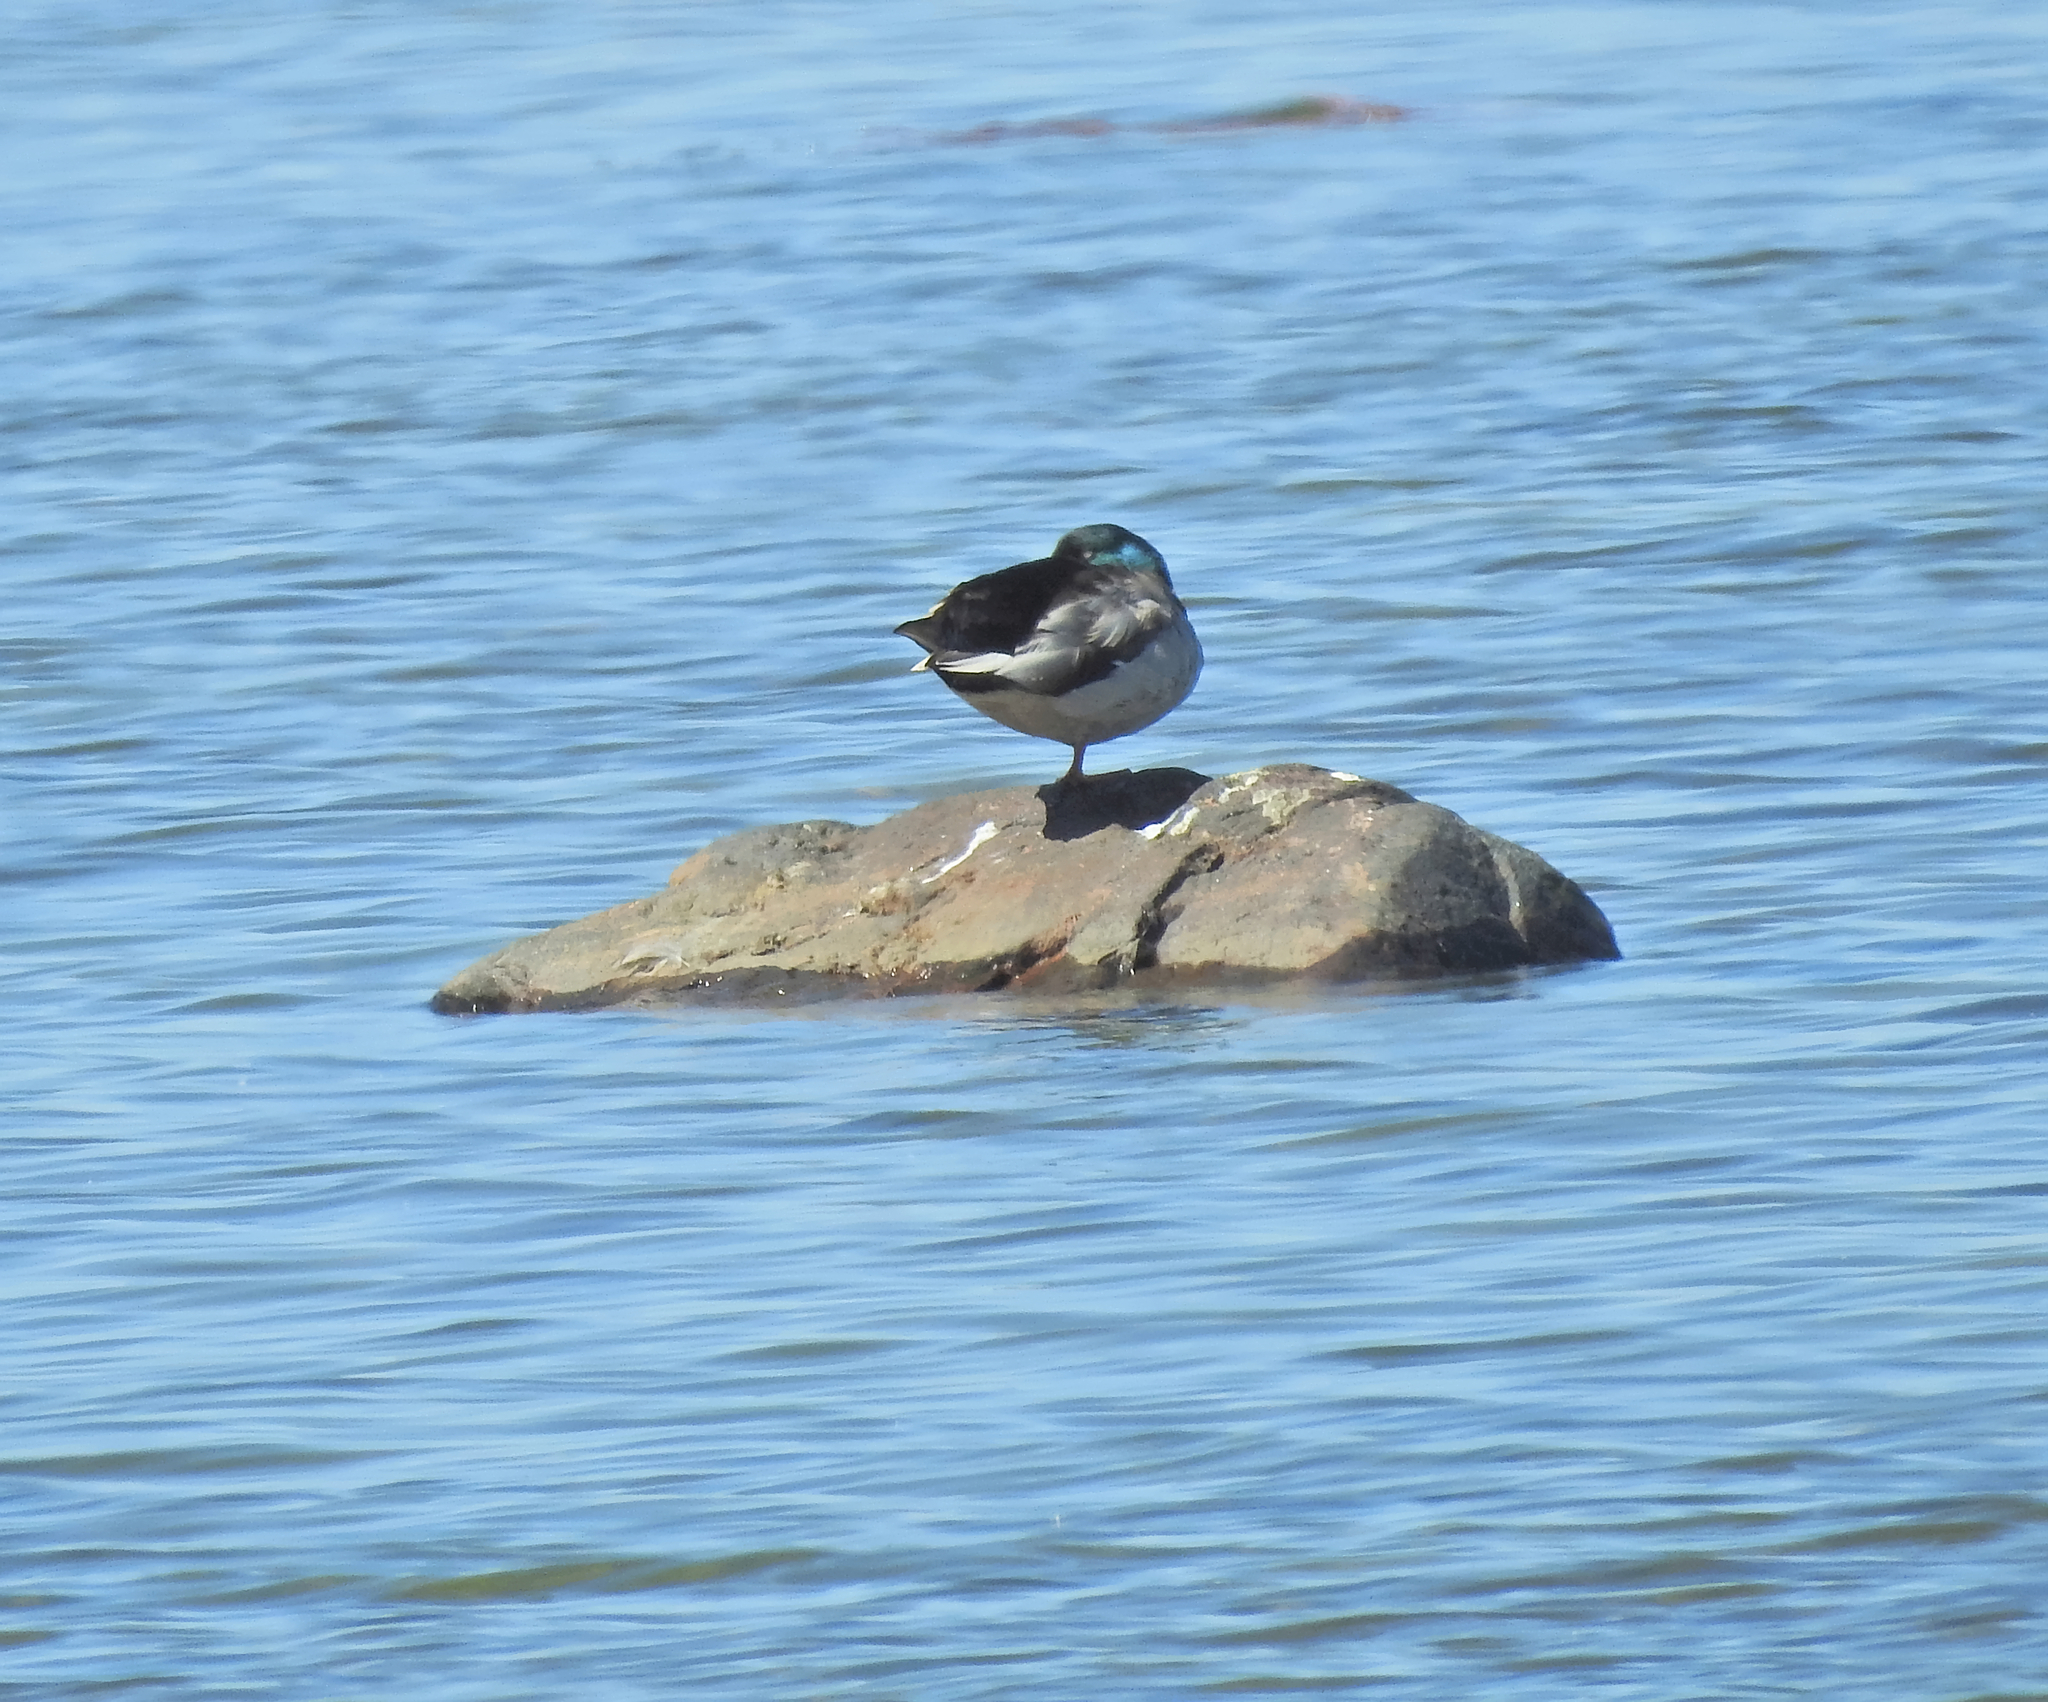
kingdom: Animalia
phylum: Chordata
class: Aves
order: Anseriformes
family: Anatidae
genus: Anas
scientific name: Anas platyrhynchos
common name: Mallard
